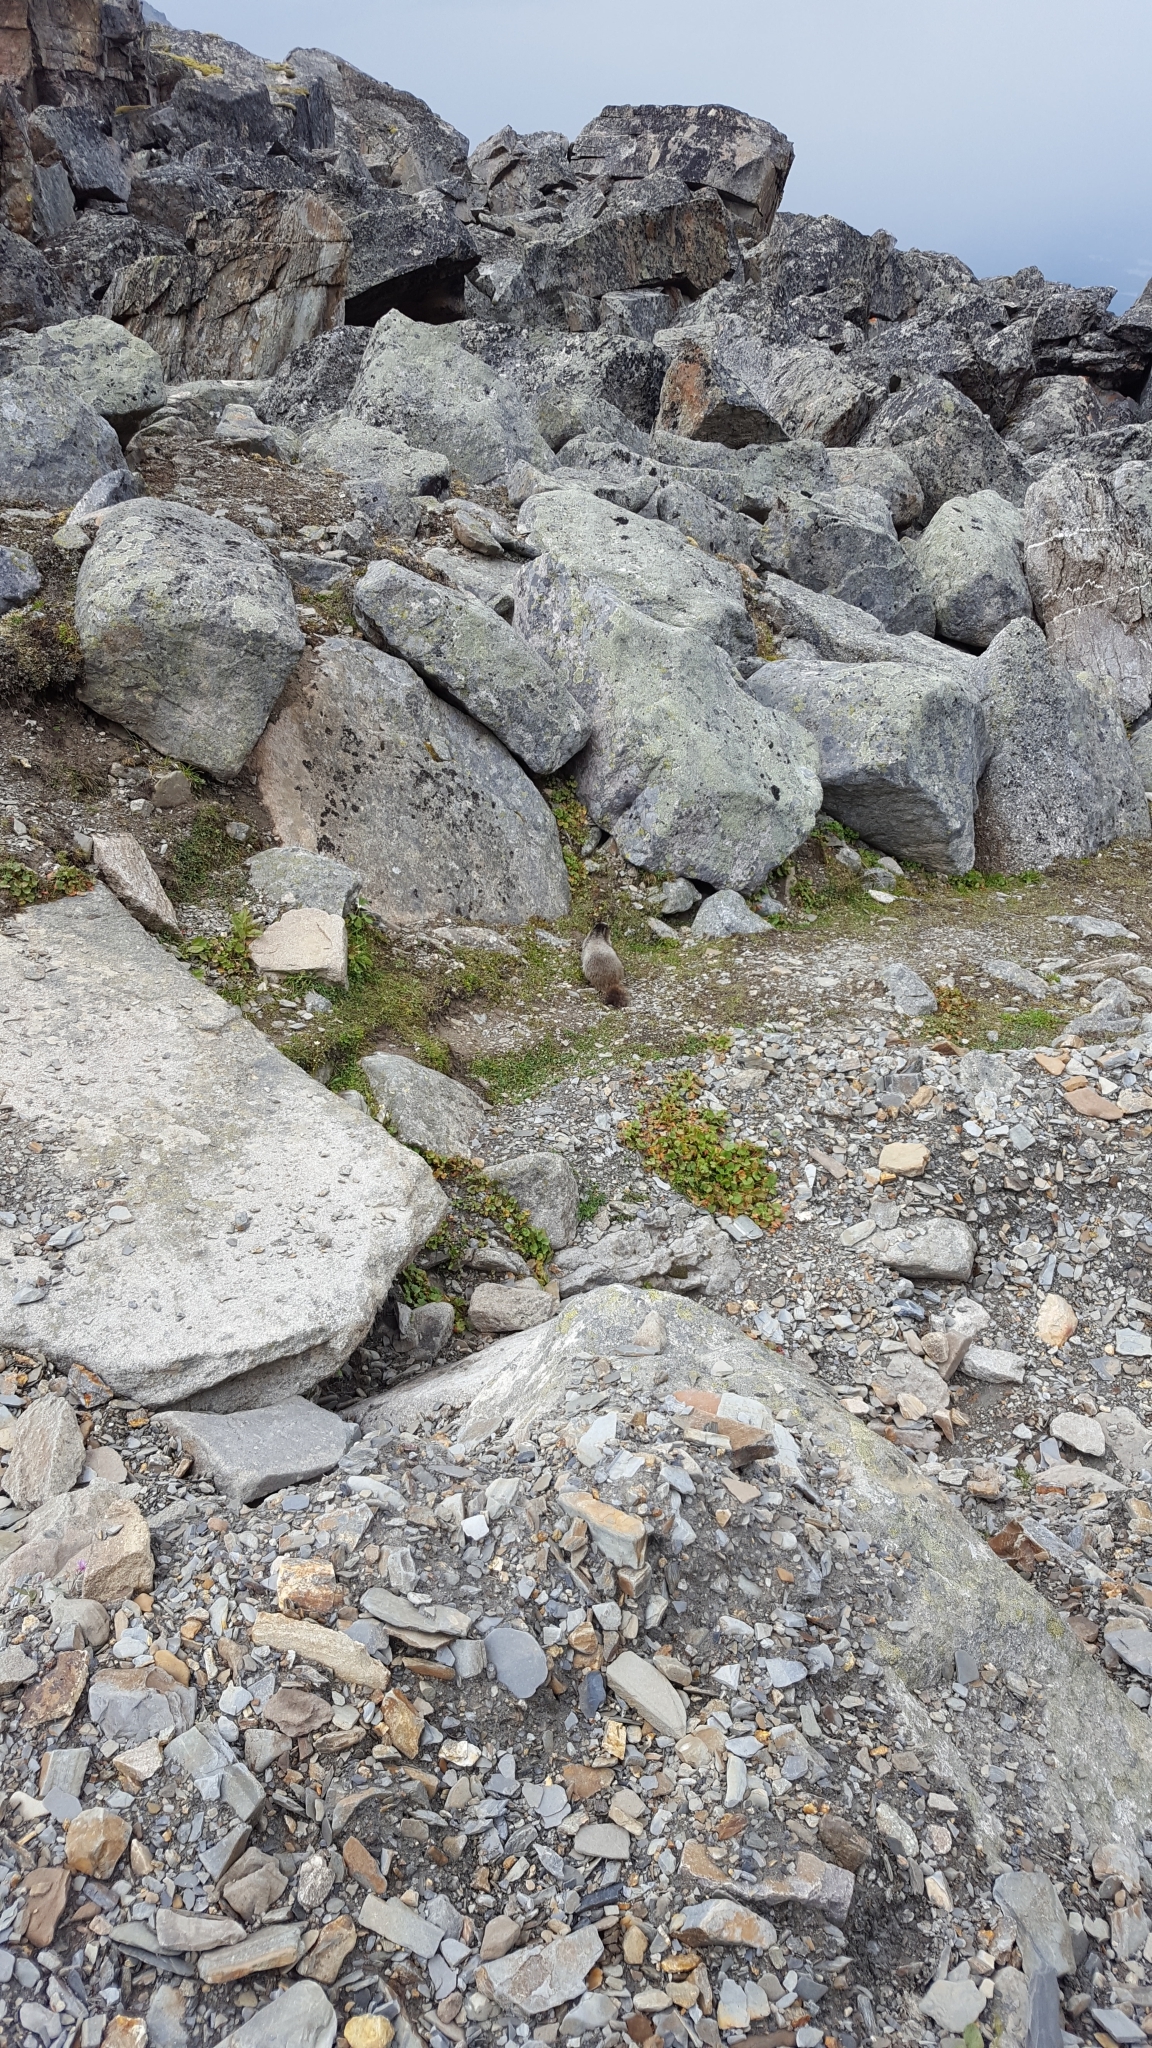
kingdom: Animalia
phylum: Chordata
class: Mammalia
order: Rodentia
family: Sciuridae
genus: Marmota
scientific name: Marmota caligata
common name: Hoary marmot
